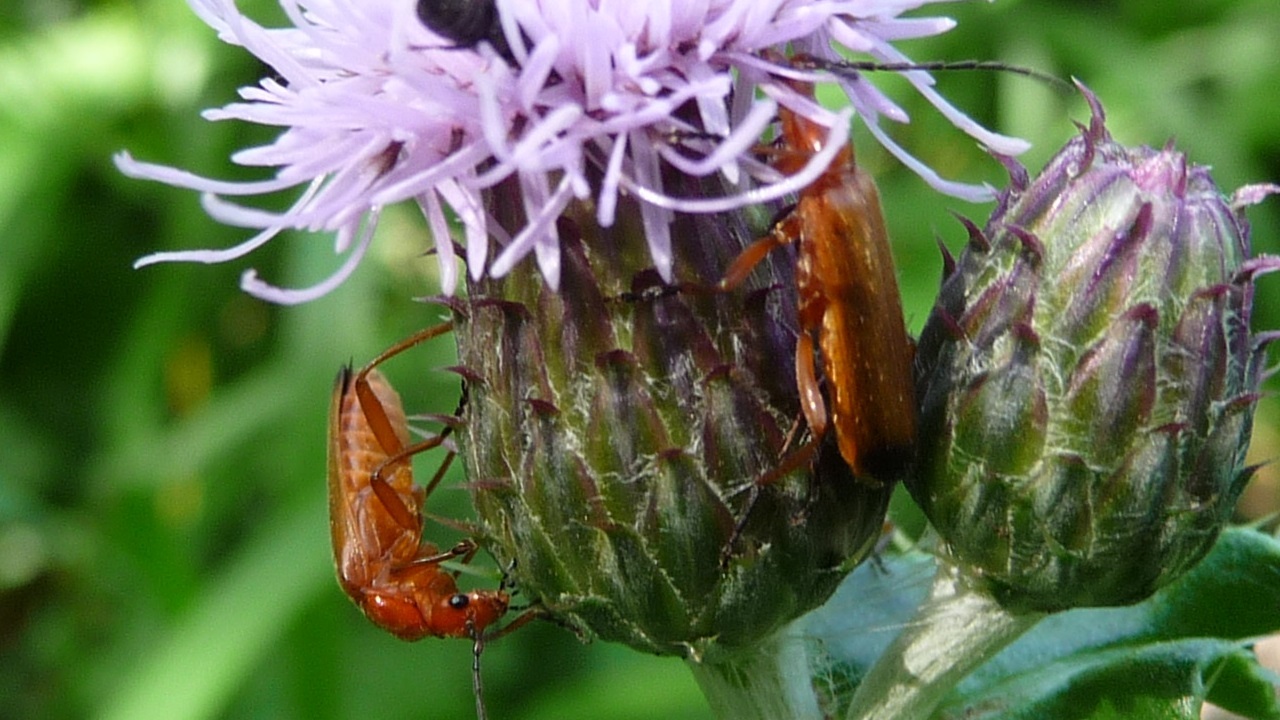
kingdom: Animalia
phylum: Arthropoda
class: Insecta
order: Coleoptera
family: Cantharidae
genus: Rhagonycha
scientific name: Rhagonycha fulva
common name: Common red soldier beetle
